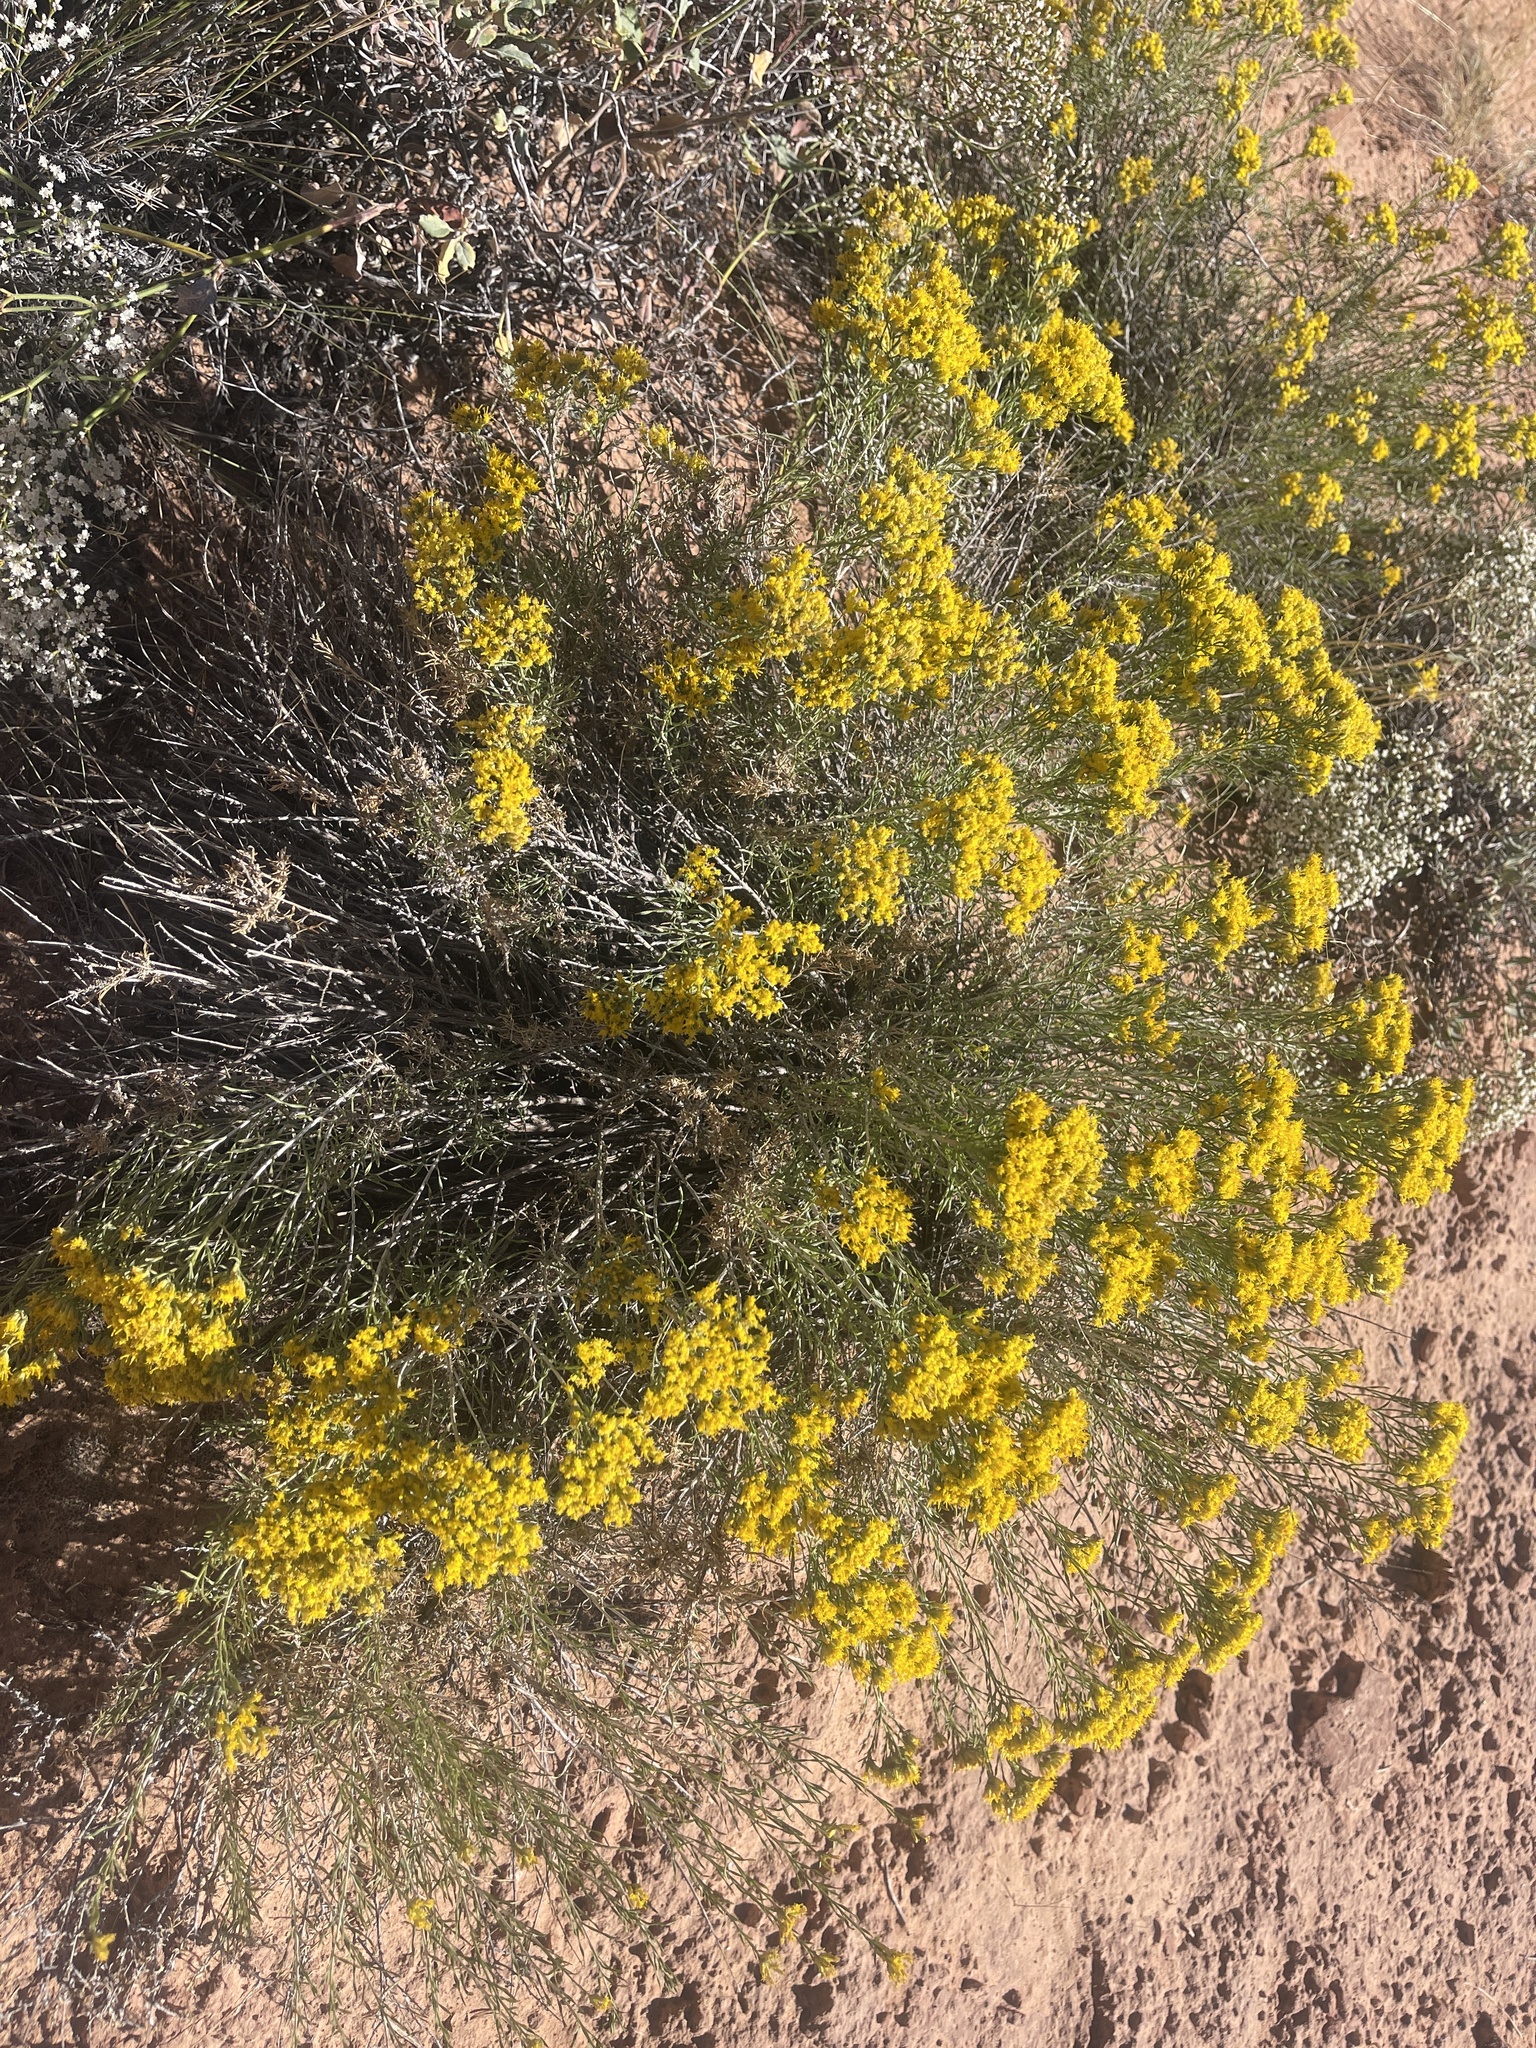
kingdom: Plantae
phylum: Tracheophyta
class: Magnoliopsida
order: Asterales
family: Asteraceae
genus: Chrysothamnus
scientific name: Chrysothamnus viscidiflorus
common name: Yellow rabbitbrush
